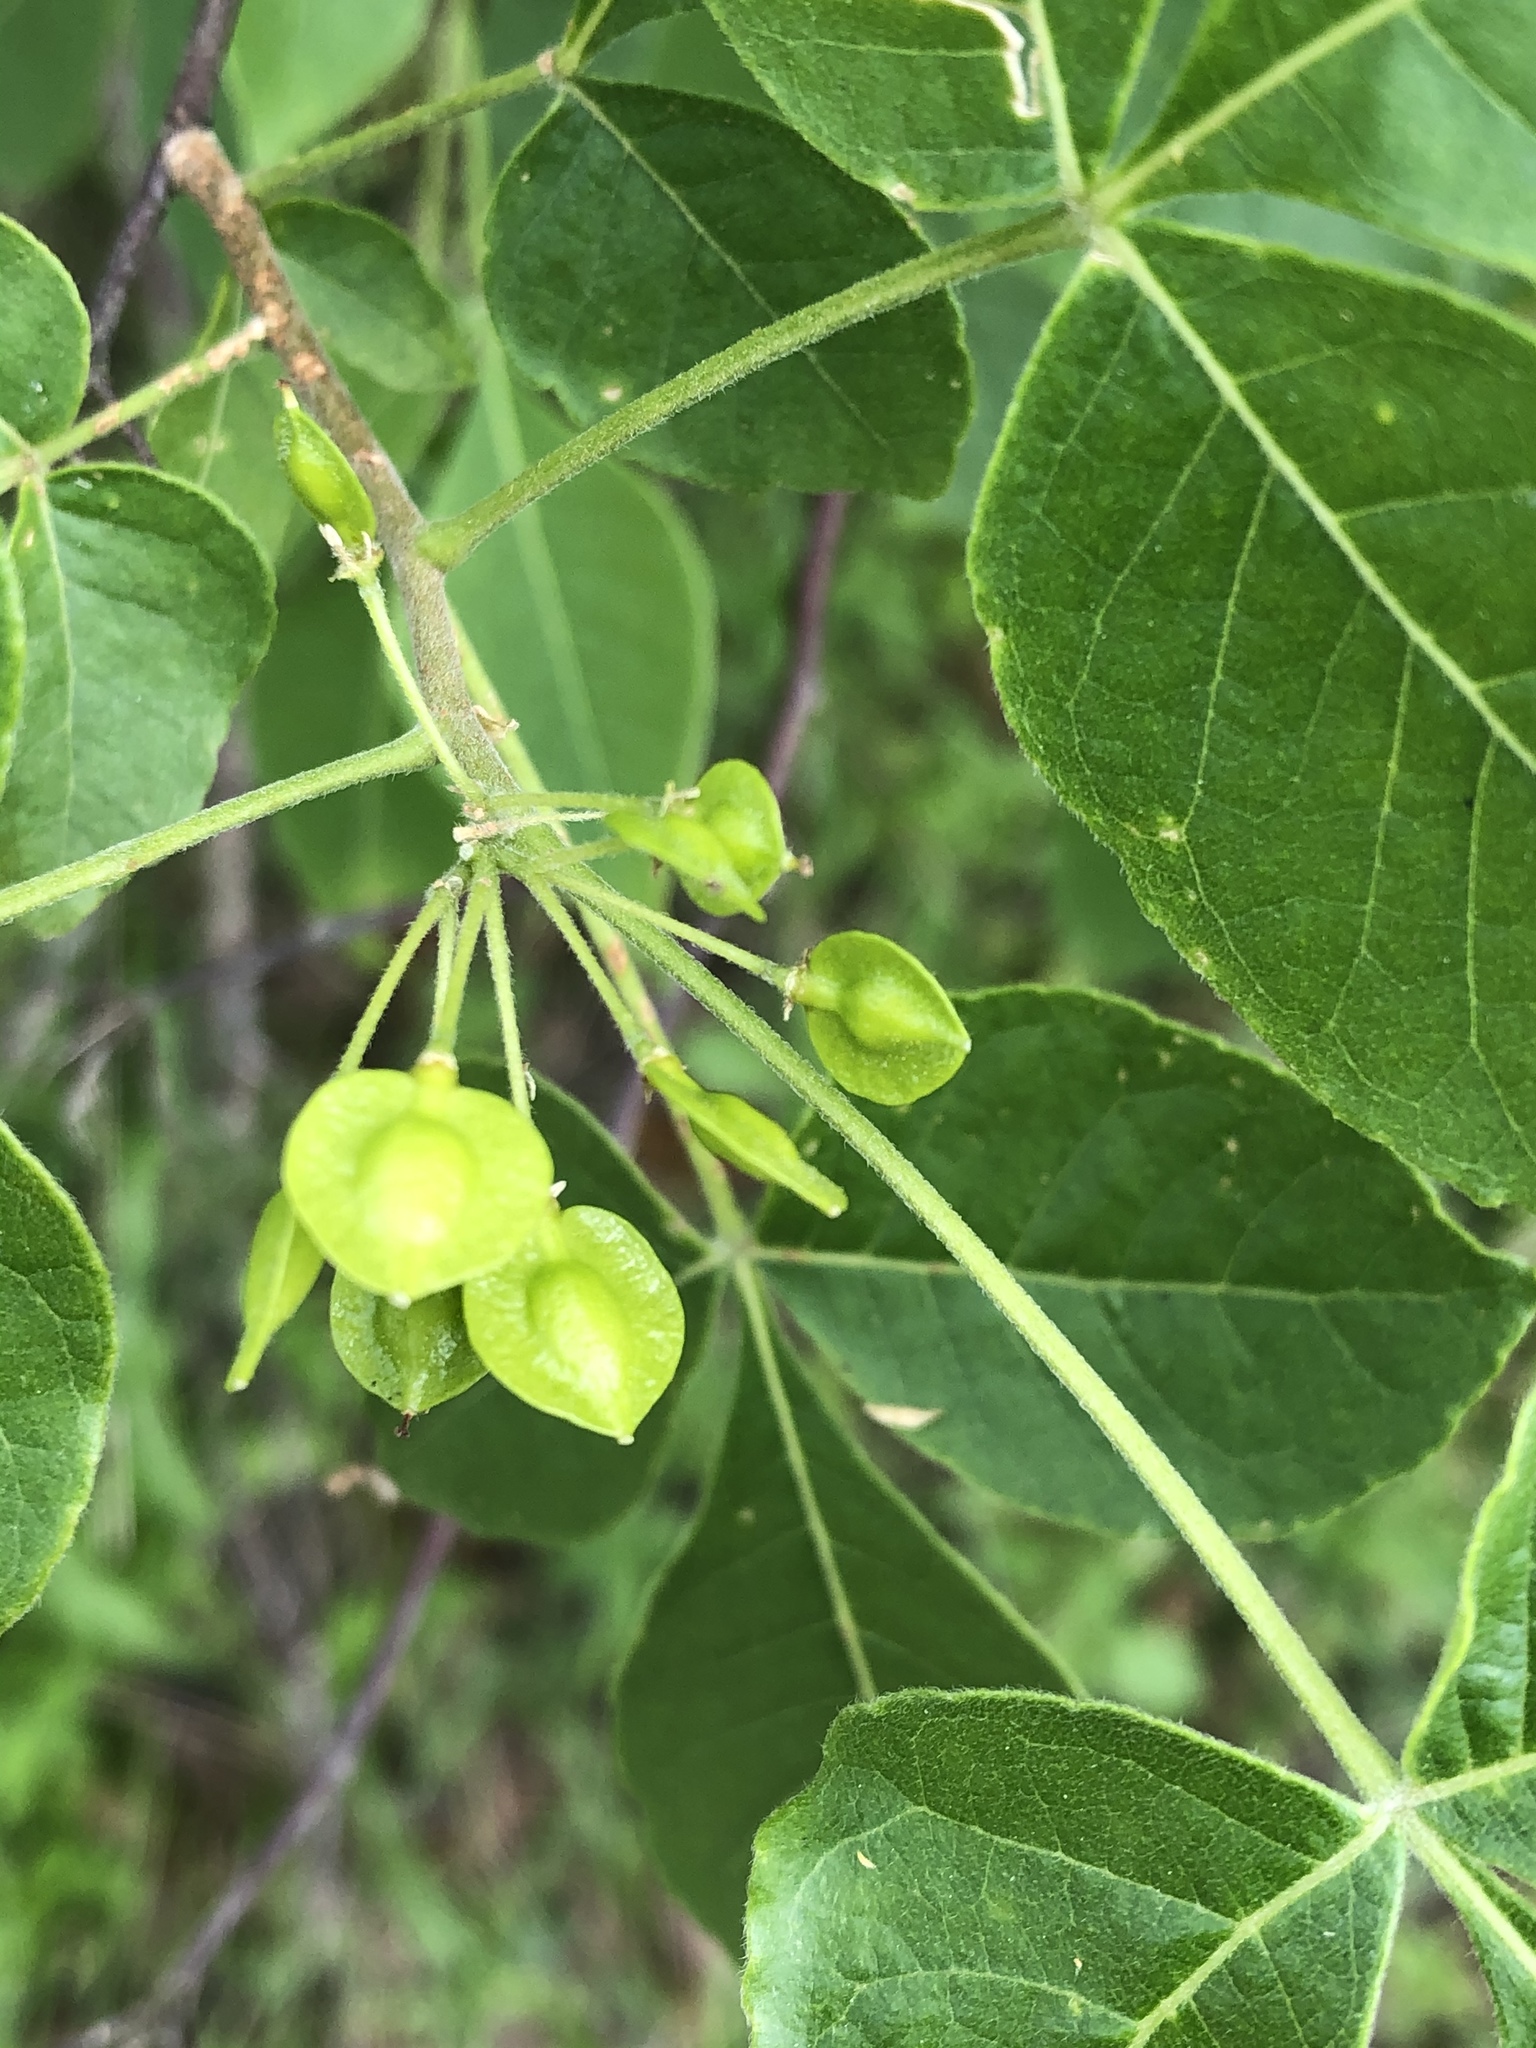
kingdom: Plantae
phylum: Tracheophyta
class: Magnoliopsida
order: Sapindales
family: Rutaceae
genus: Ptelea
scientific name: Ptelea trifoliata
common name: Common hop-tree
